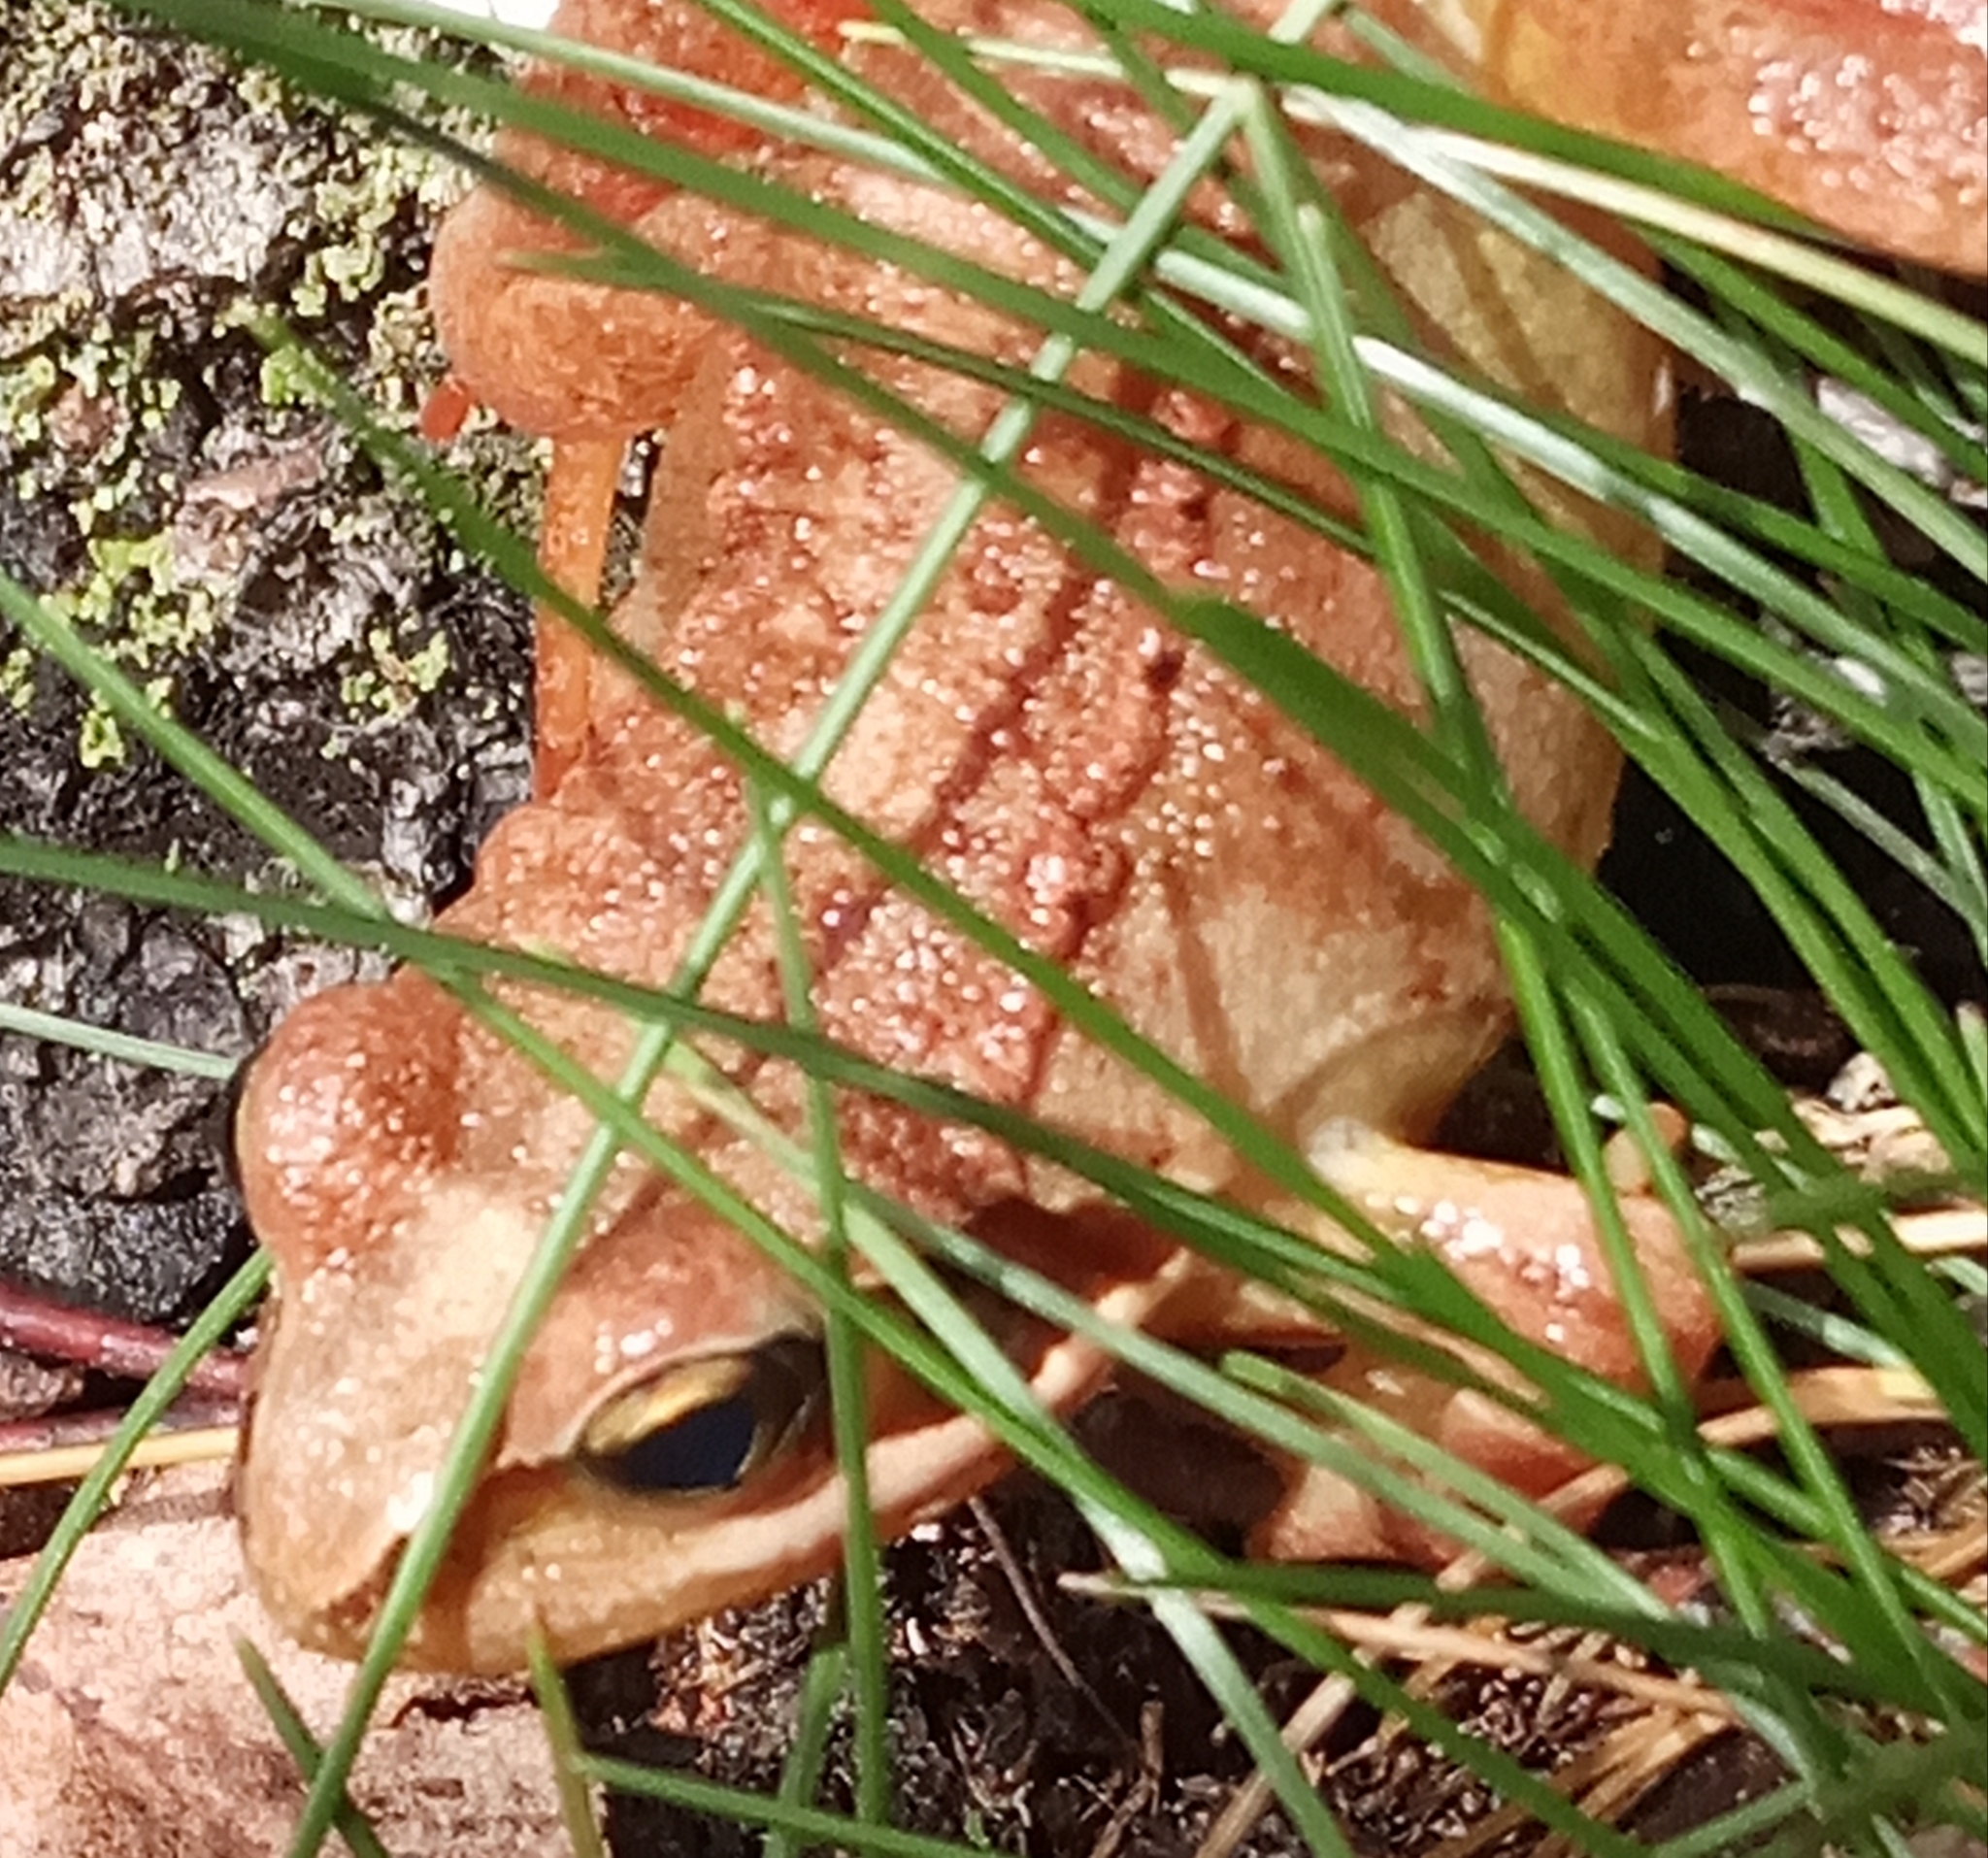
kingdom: Animalia
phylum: Chordata
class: Amphibia
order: Anura
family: Ranidae
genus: Rana
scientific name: Rana dalmatina
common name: Agile frog
